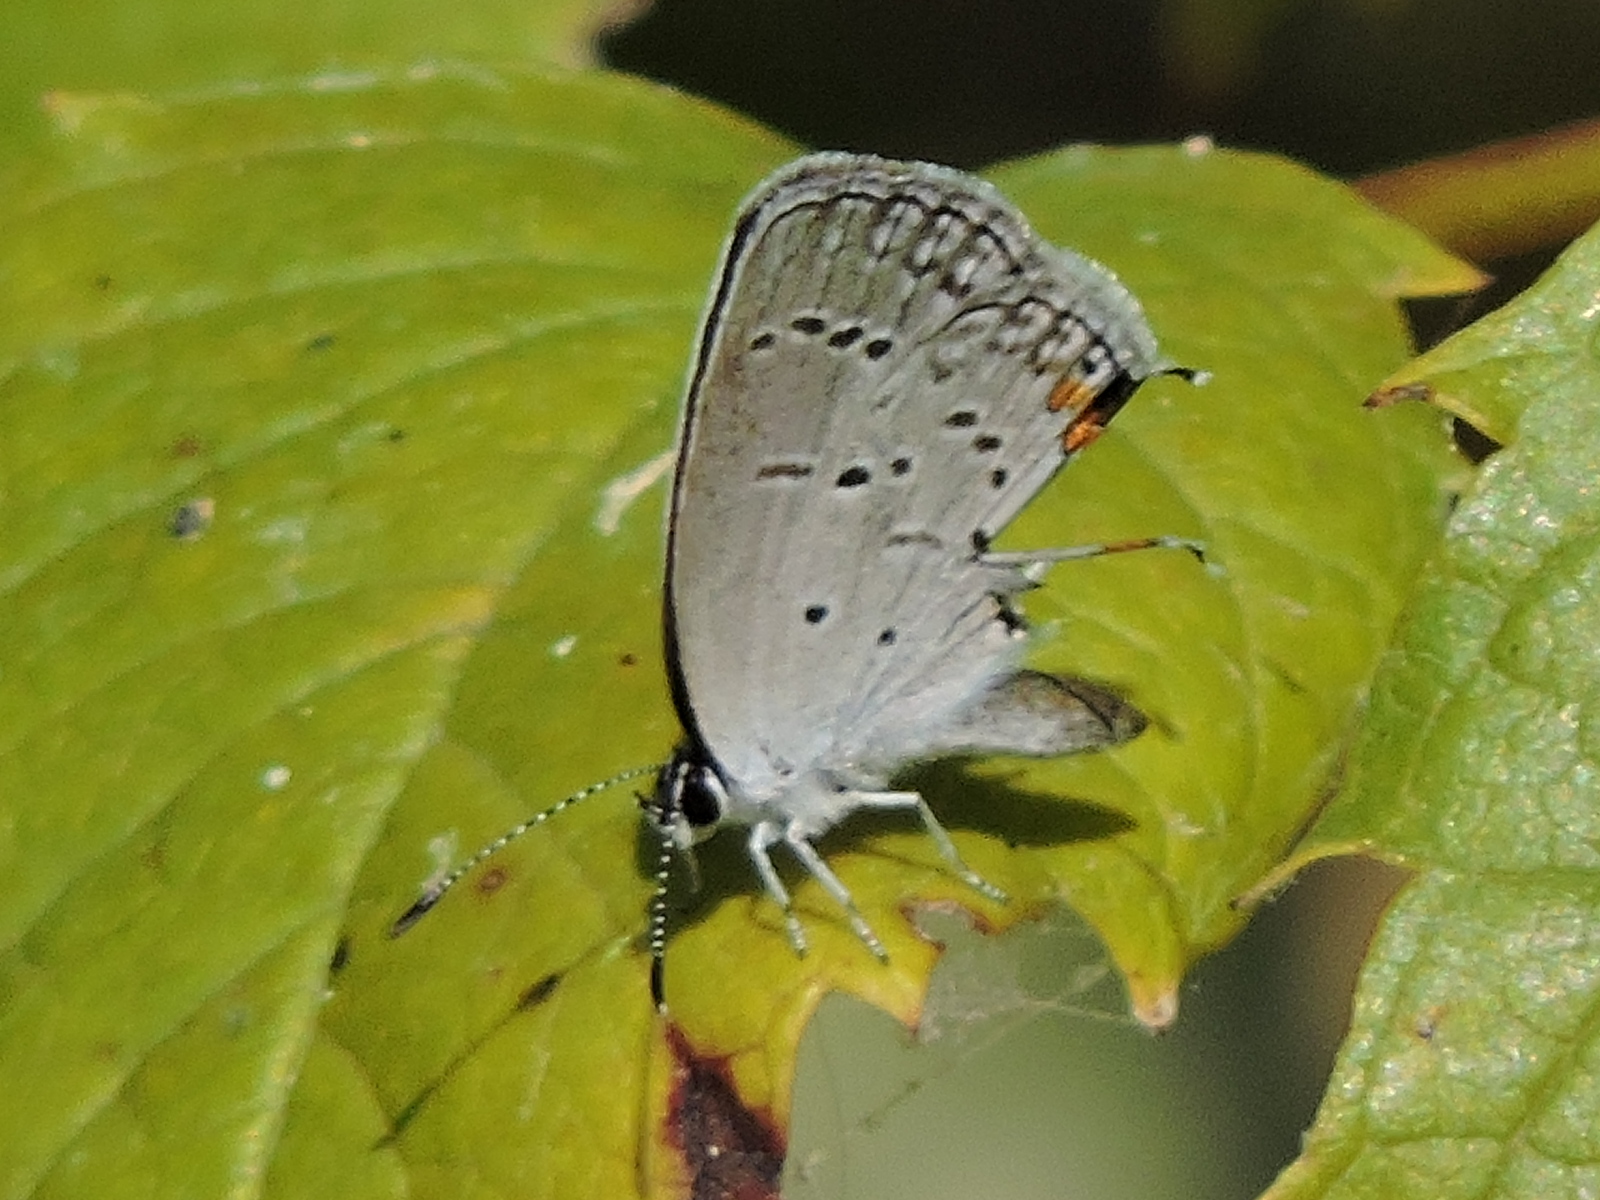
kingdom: Animalia
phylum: Arthropoda
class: Insecta
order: Lepidoptera
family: Lycaenidae
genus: Elkalyce
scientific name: Elkalyce comyntas
